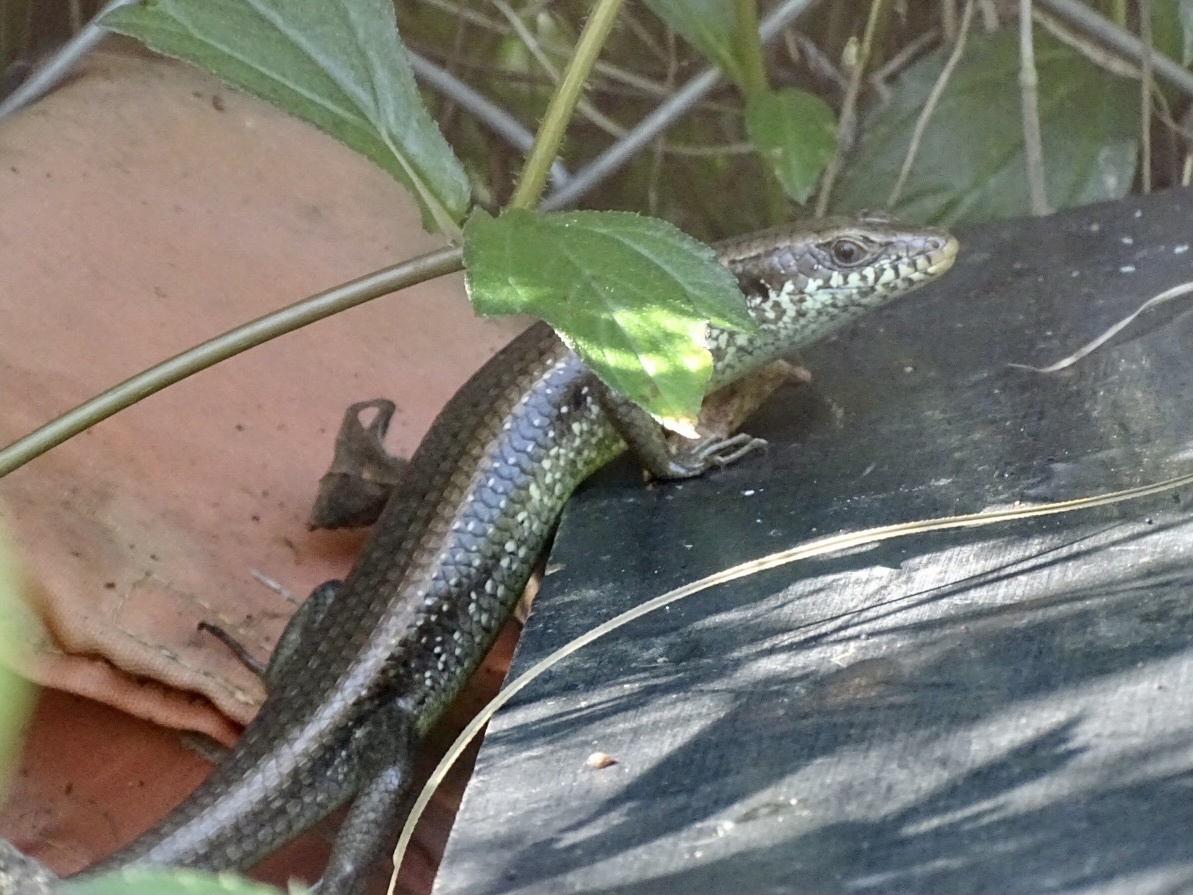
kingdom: Animalia
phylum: Chordata
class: Squamata
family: Scincidae
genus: Eutropis
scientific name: Eutropis longicaudata
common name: Long-tailed sun skink
